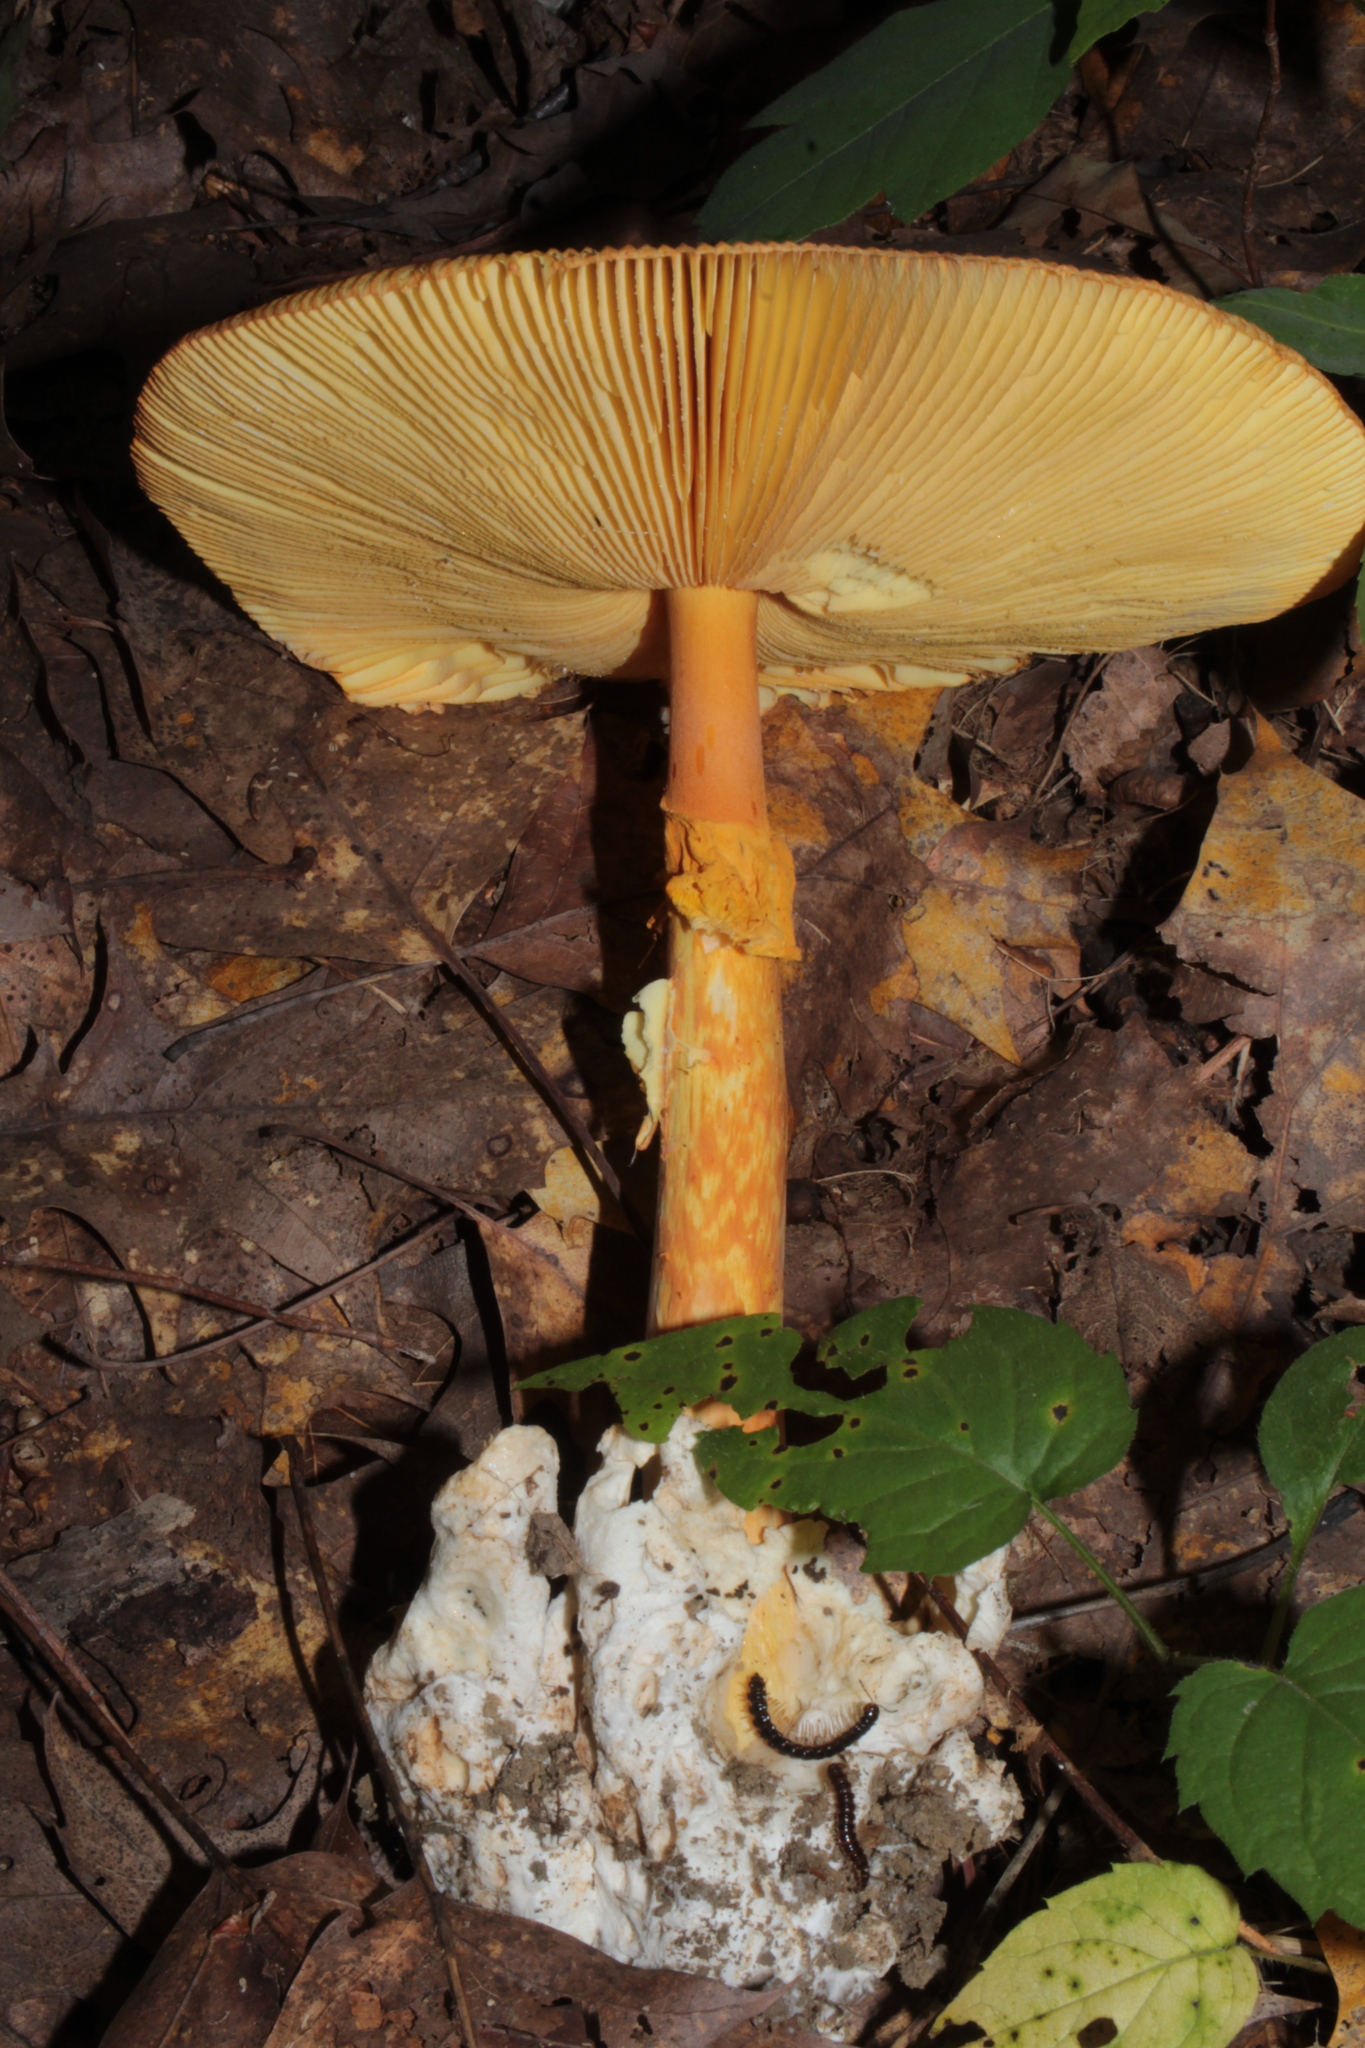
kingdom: Fungi
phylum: Basidiomycota
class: Agaricomycetes
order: Agaricales
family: Amanitaceae
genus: Amanita
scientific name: Amanita jacksonii
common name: Jackson's slender caesar
